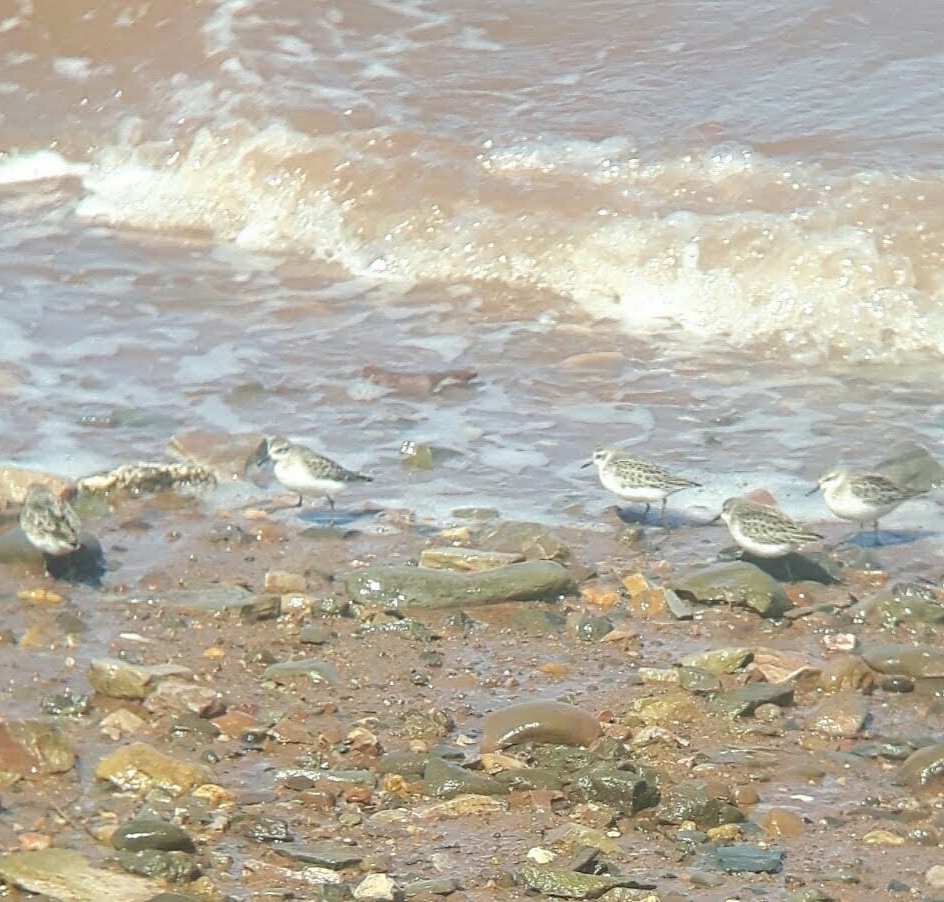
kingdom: Animalia
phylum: Chordata
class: Aves
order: Charadriiformes
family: Scolopacidae
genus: Calidris
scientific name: Calidris pusilla
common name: Semipalmated sandpiper
